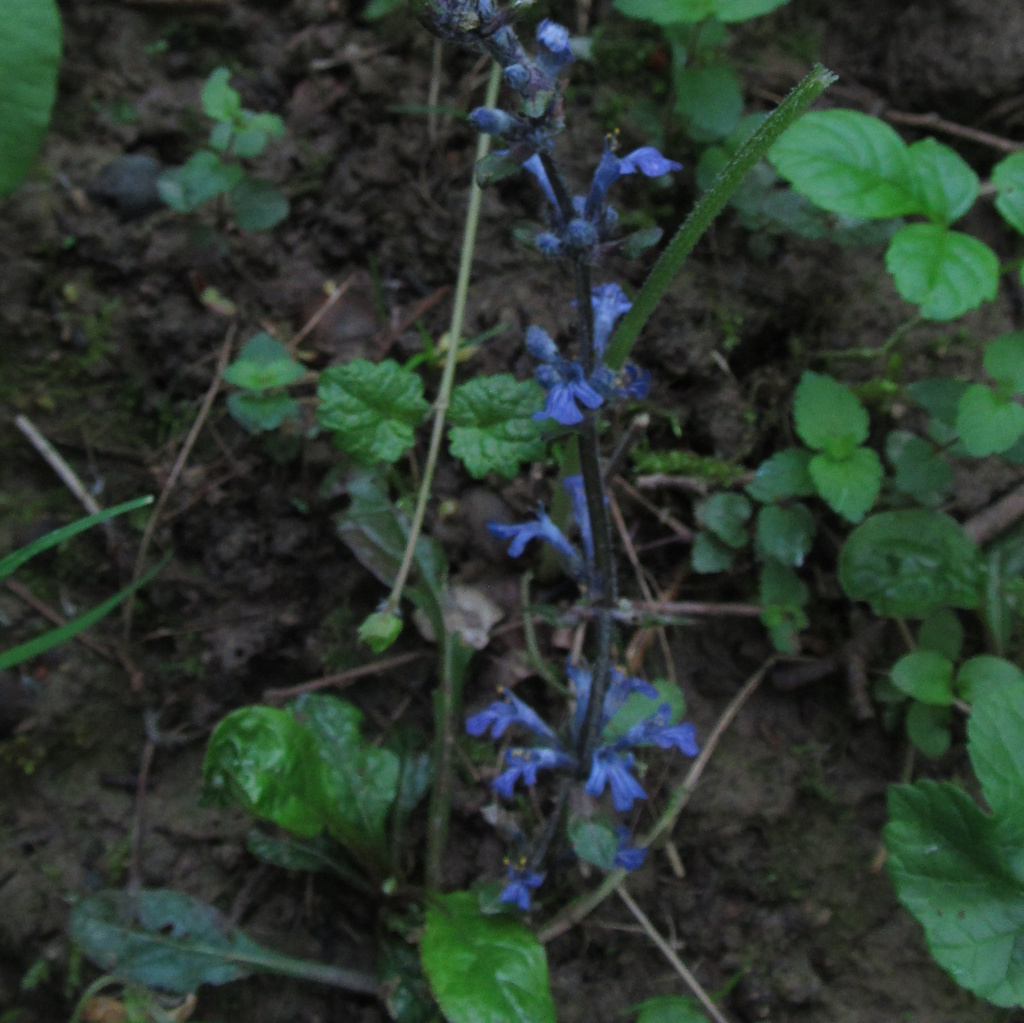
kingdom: Plantae
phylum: Tracheophyta
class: Magnoliopsida
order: Lamiales
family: Lamiaceae
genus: Ajuga
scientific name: Ajuga reptans
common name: Bugle
